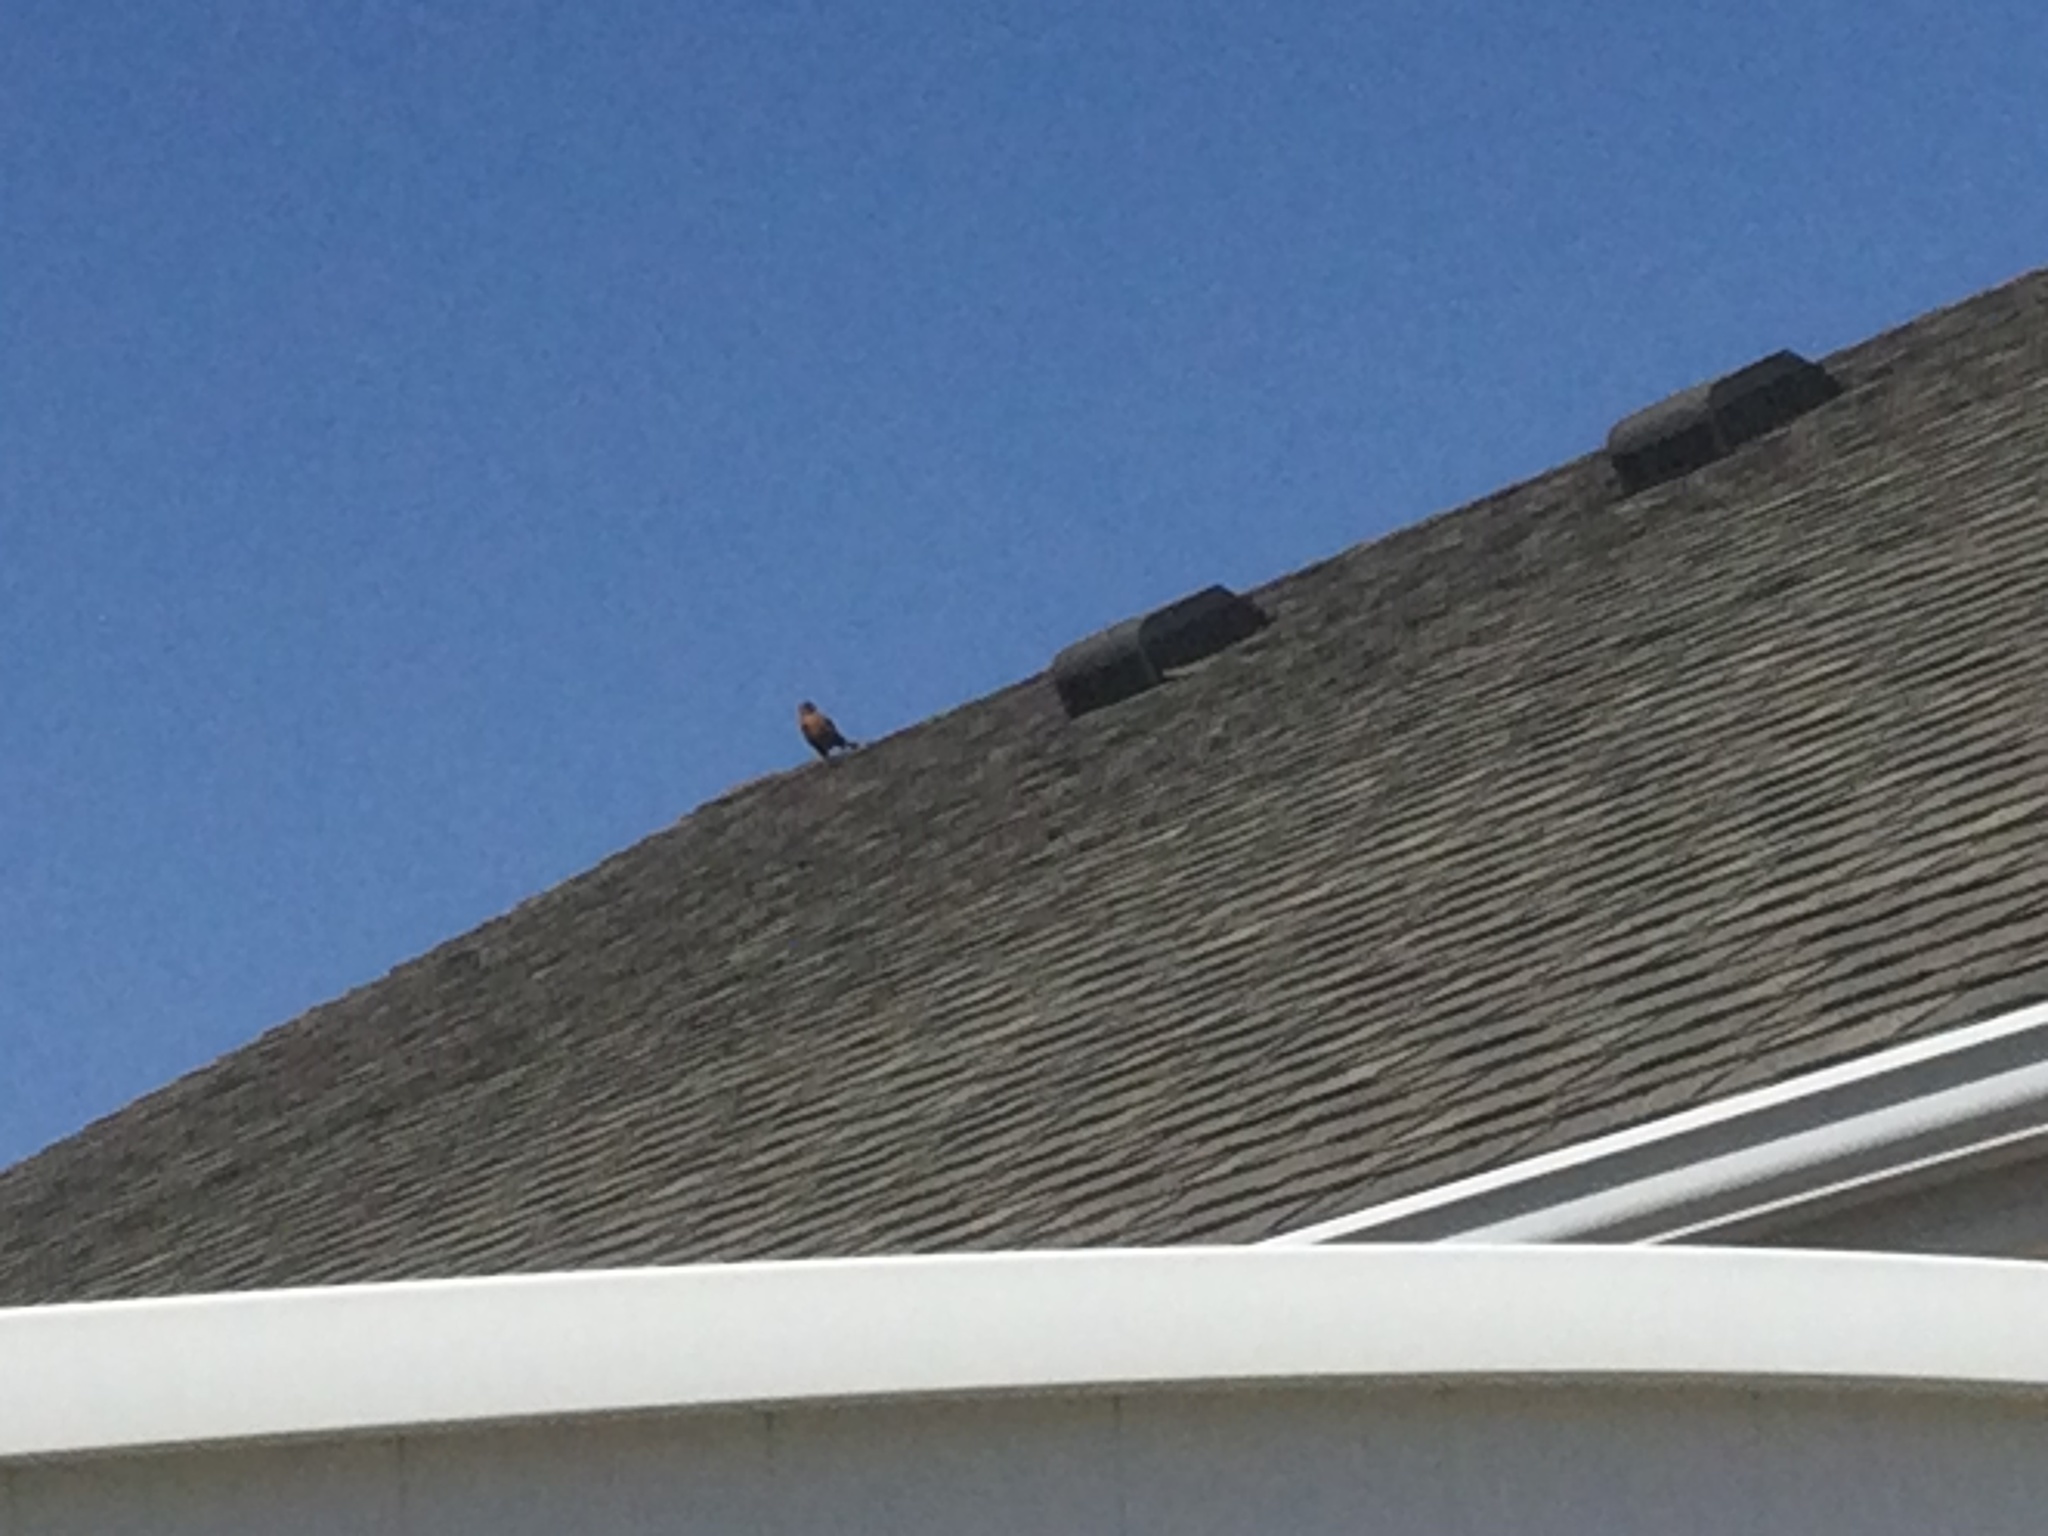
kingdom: Animalia
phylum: Chordata
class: Aves
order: Passeriformes
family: Turdidae
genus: Turdus
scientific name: Turdus migratorius
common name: American robin
